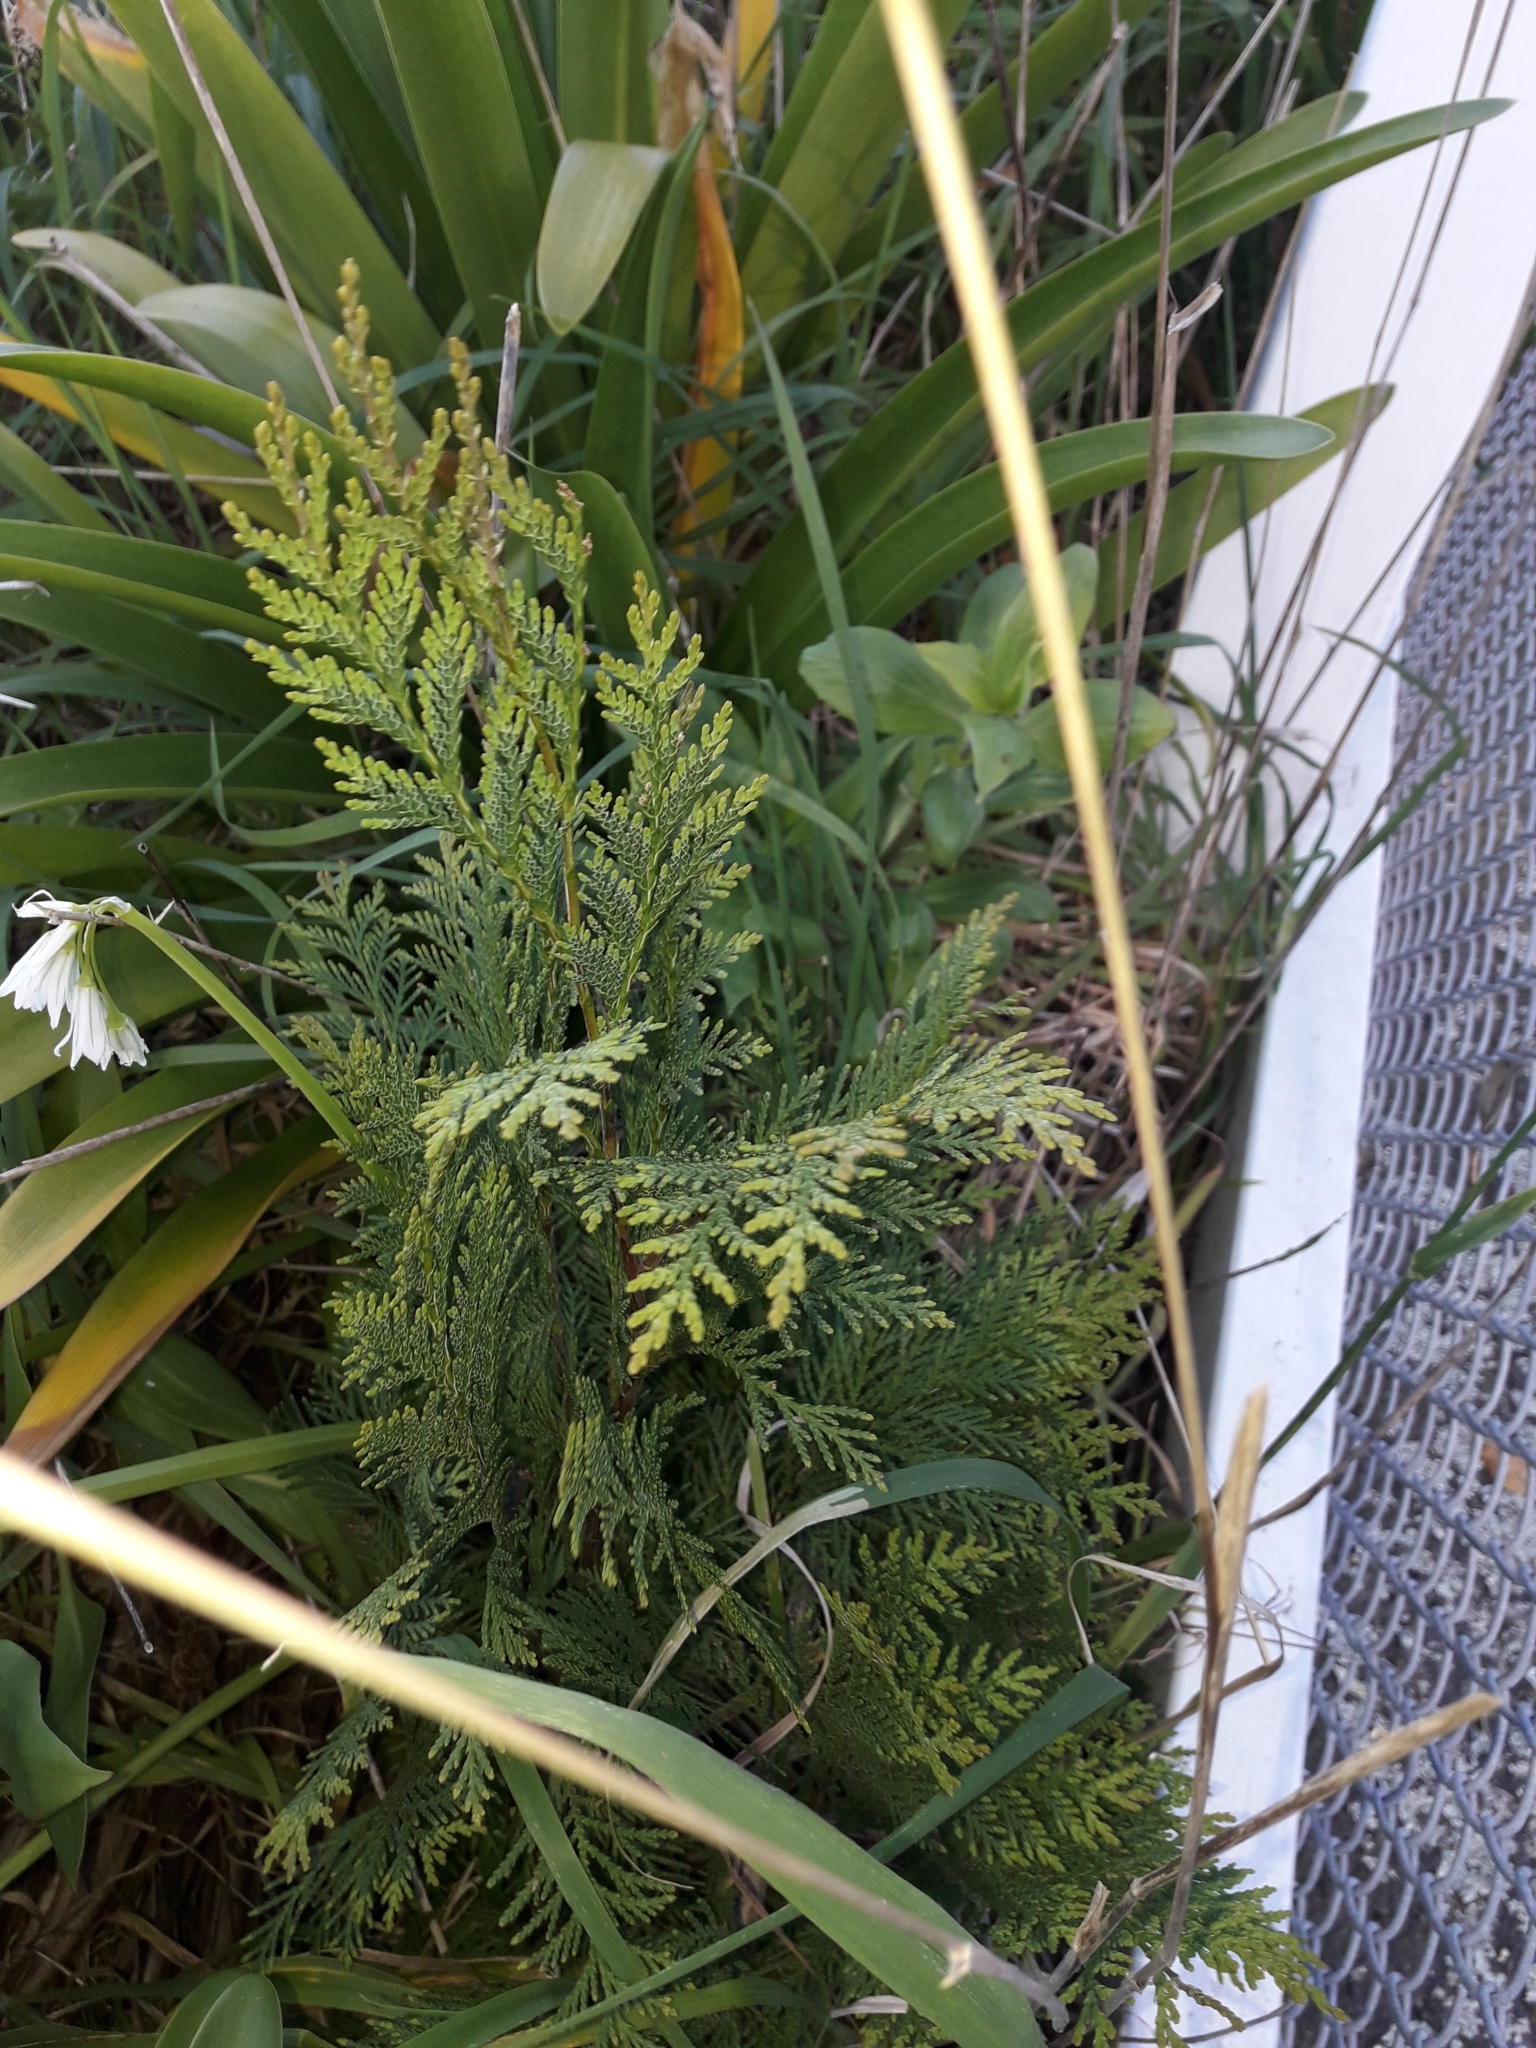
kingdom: Plantae
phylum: Tracheophyta
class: Pinopsida
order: Pinales
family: Cupressaceae
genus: Chamaecyparis
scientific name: Chamaecyparis lawsoniana
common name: Lawson's cypress
